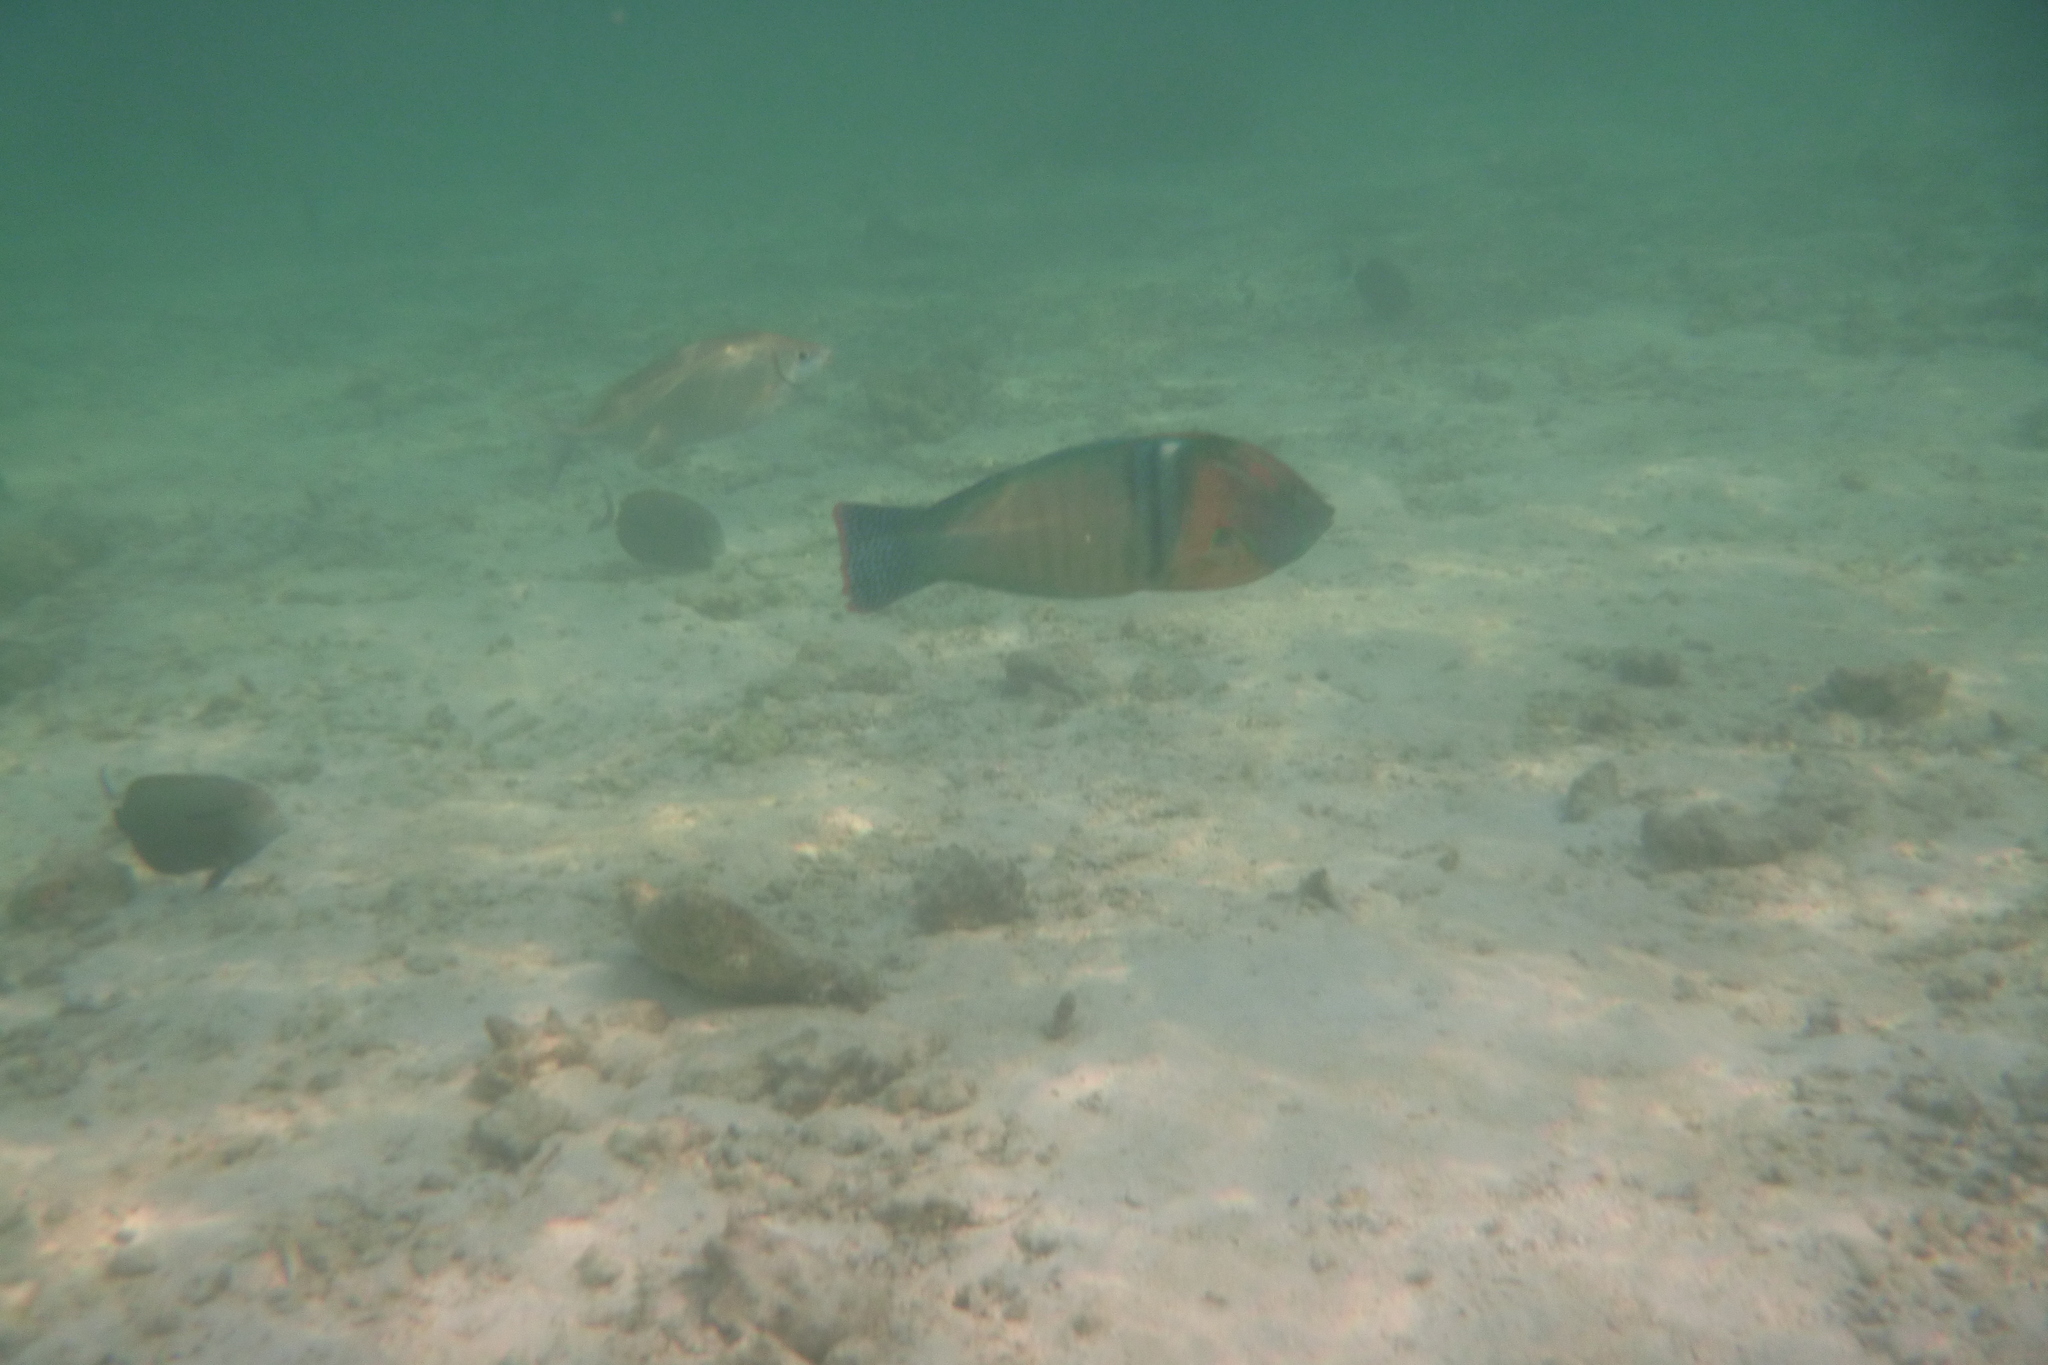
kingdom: Animalia
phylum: Chordata
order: Perciformes
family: Labridae
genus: Coris
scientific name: Coris formosa
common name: Queen coris
